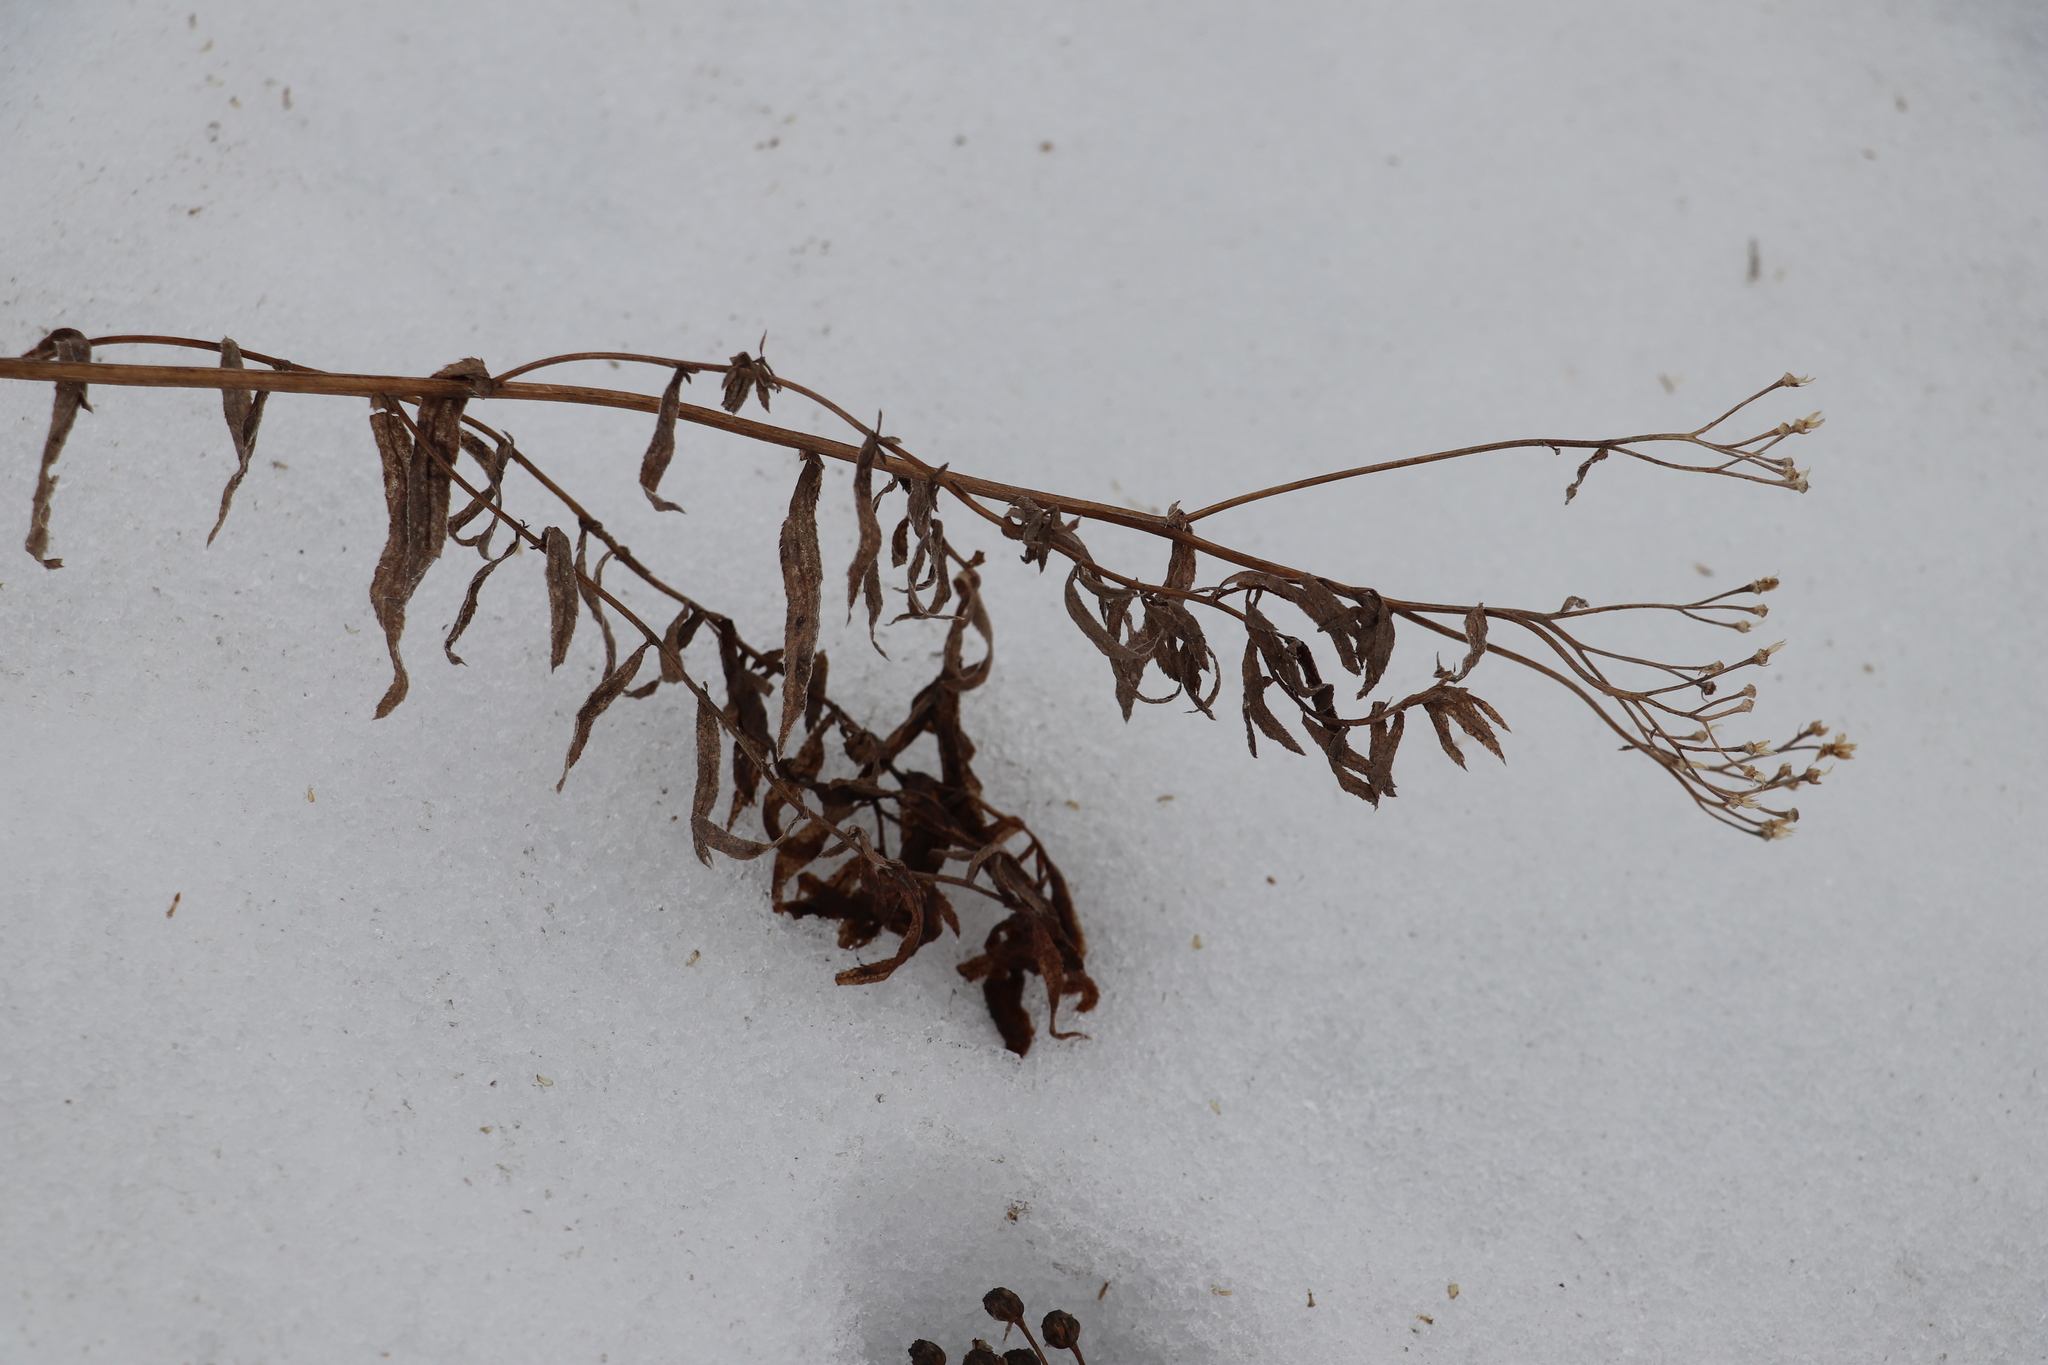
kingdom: Plantae
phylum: Tracheophyta
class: Magnoliopsida
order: Asterales
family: Asteraceae
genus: Achillea
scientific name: Achillea salicifolia
